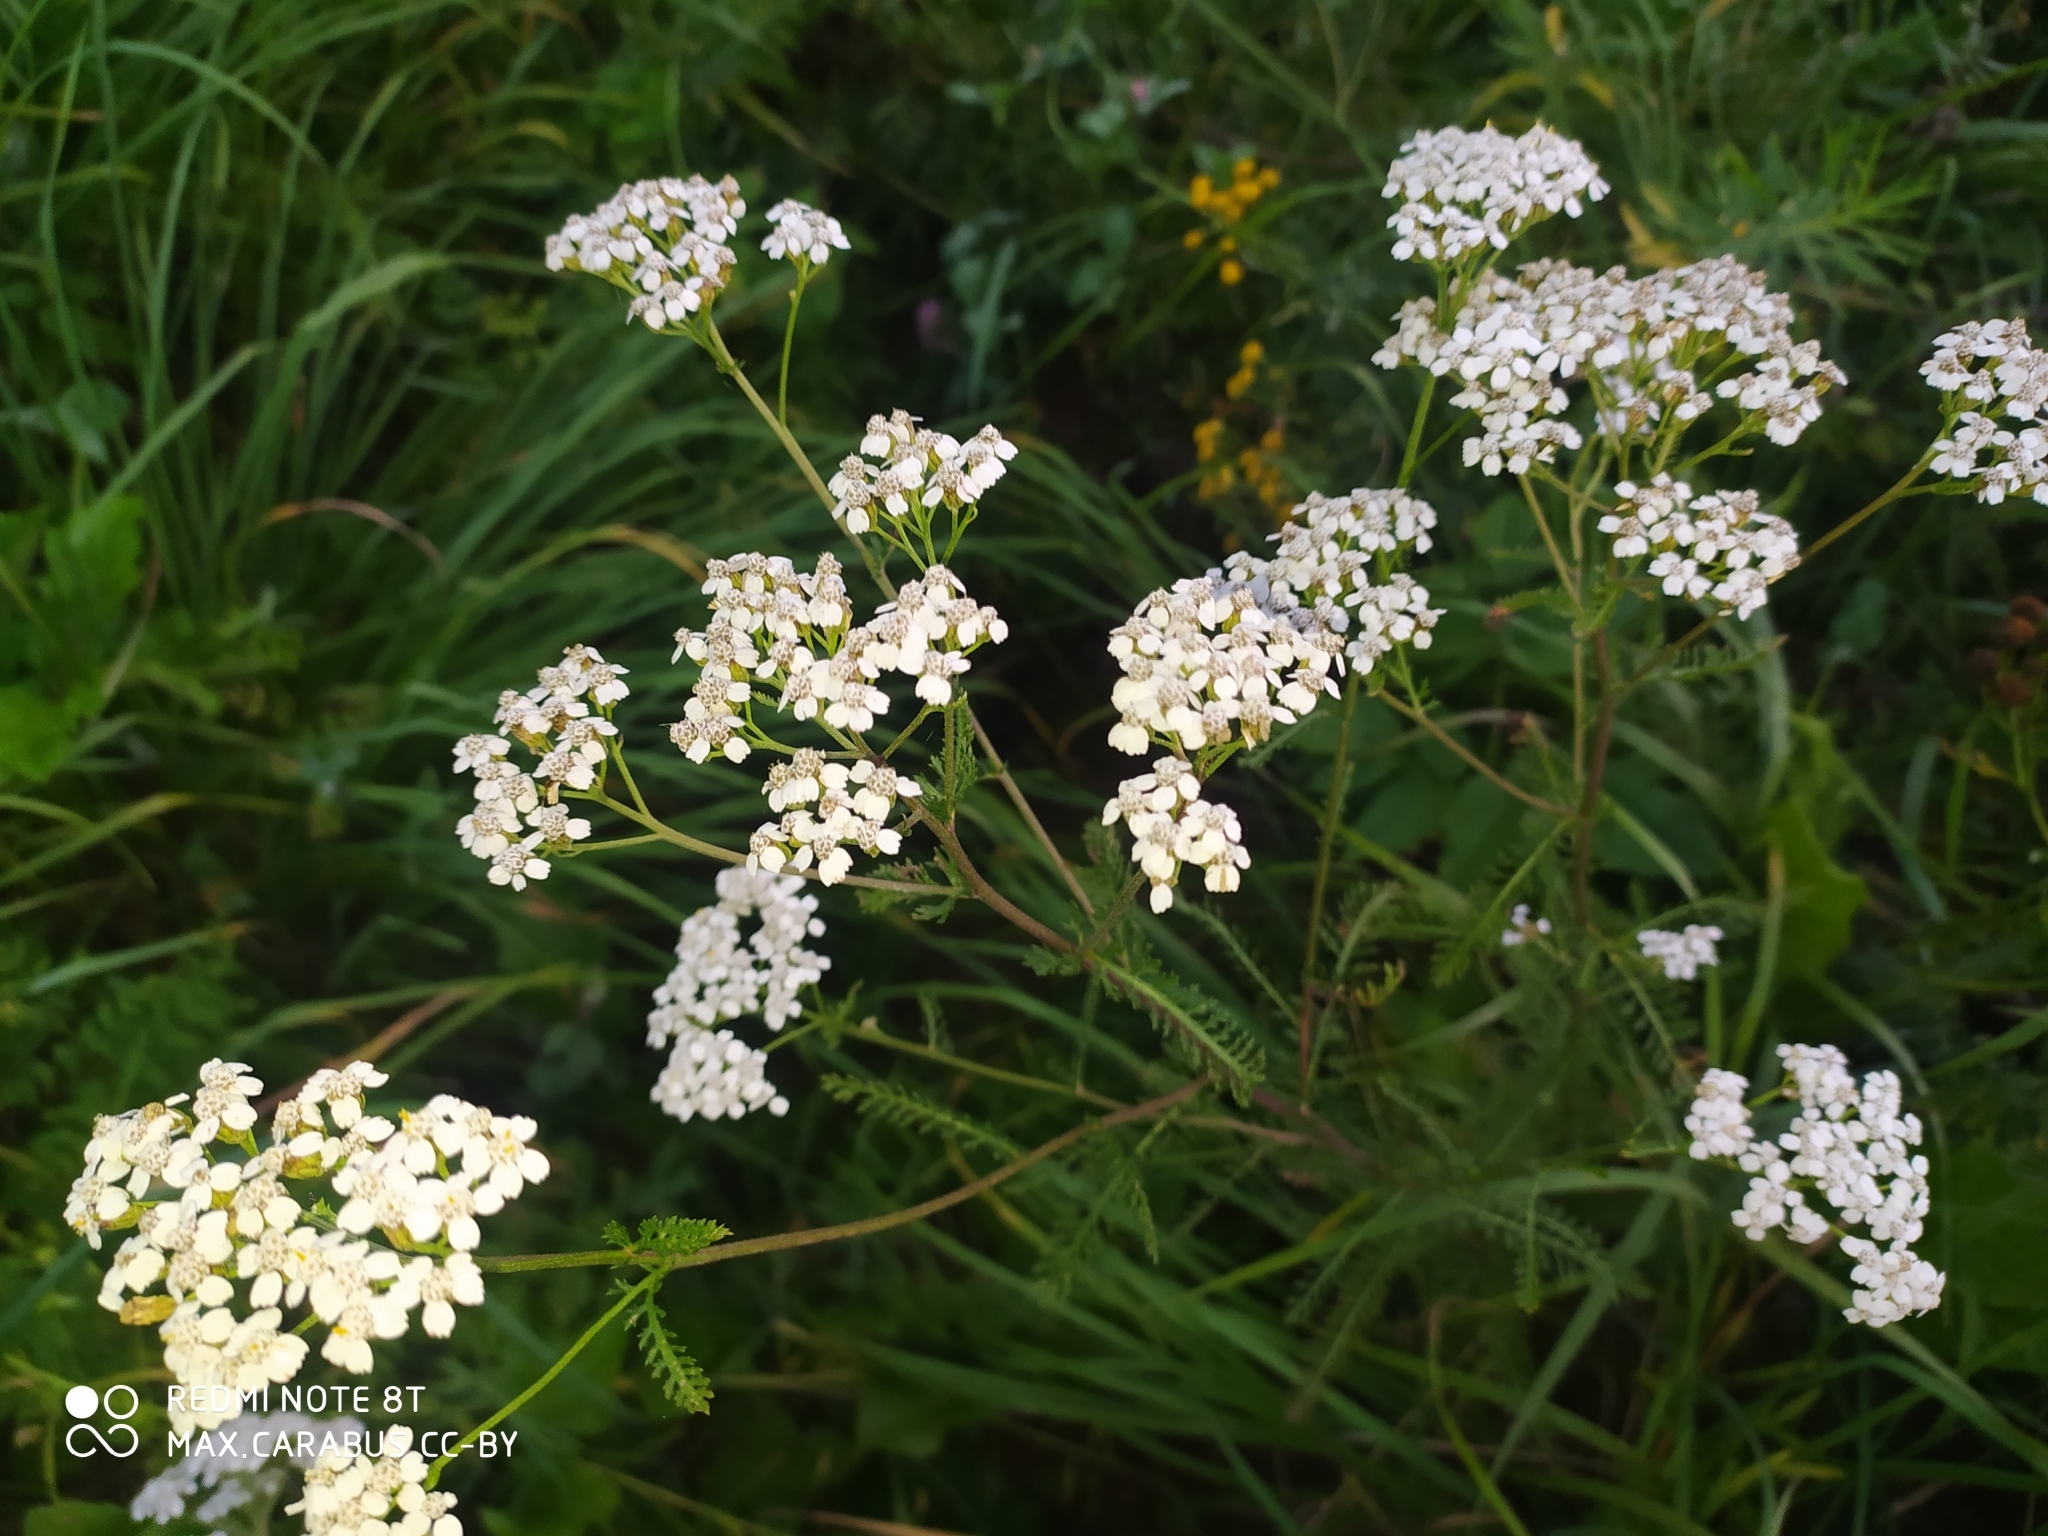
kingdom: Plantae
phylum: Tracheophyta
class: Magnoliopsida
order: Asterales
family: Asteraceae
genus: Achillea
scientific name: Achillea millefolium
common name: Yarrow
